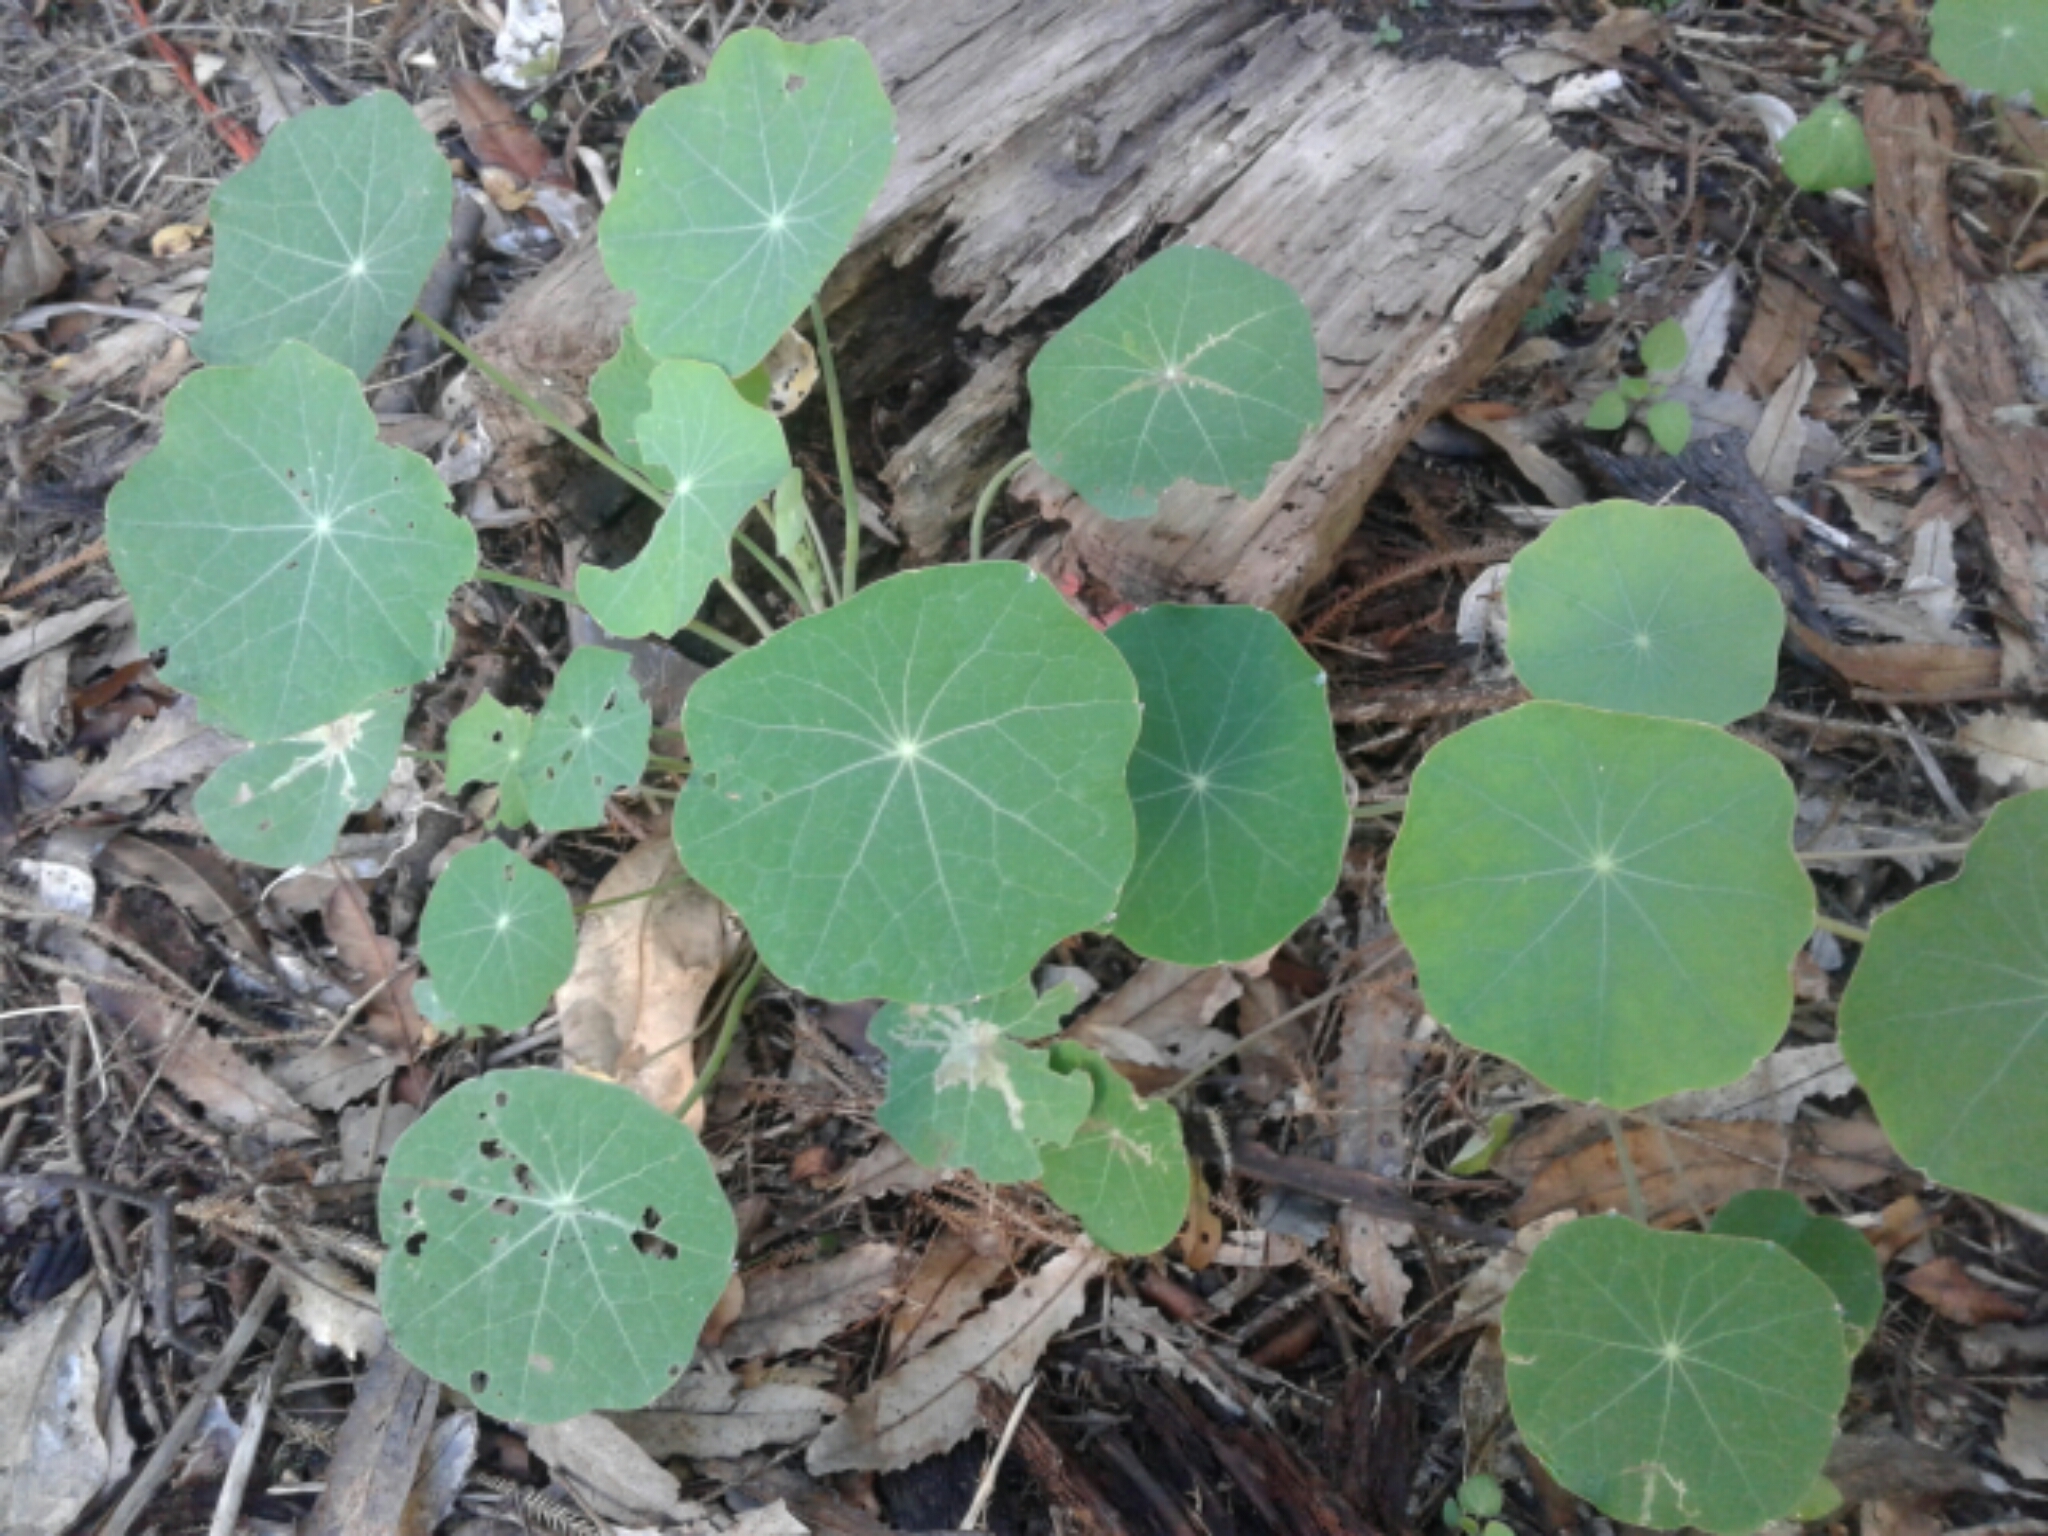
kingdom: Plantae
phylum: Tracheophyta
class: Magnoliopsida
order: Brassicales
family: Tropaeolaceae
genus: Tropaeolum
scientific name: Tropaeolum majus
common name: Nasturtium
